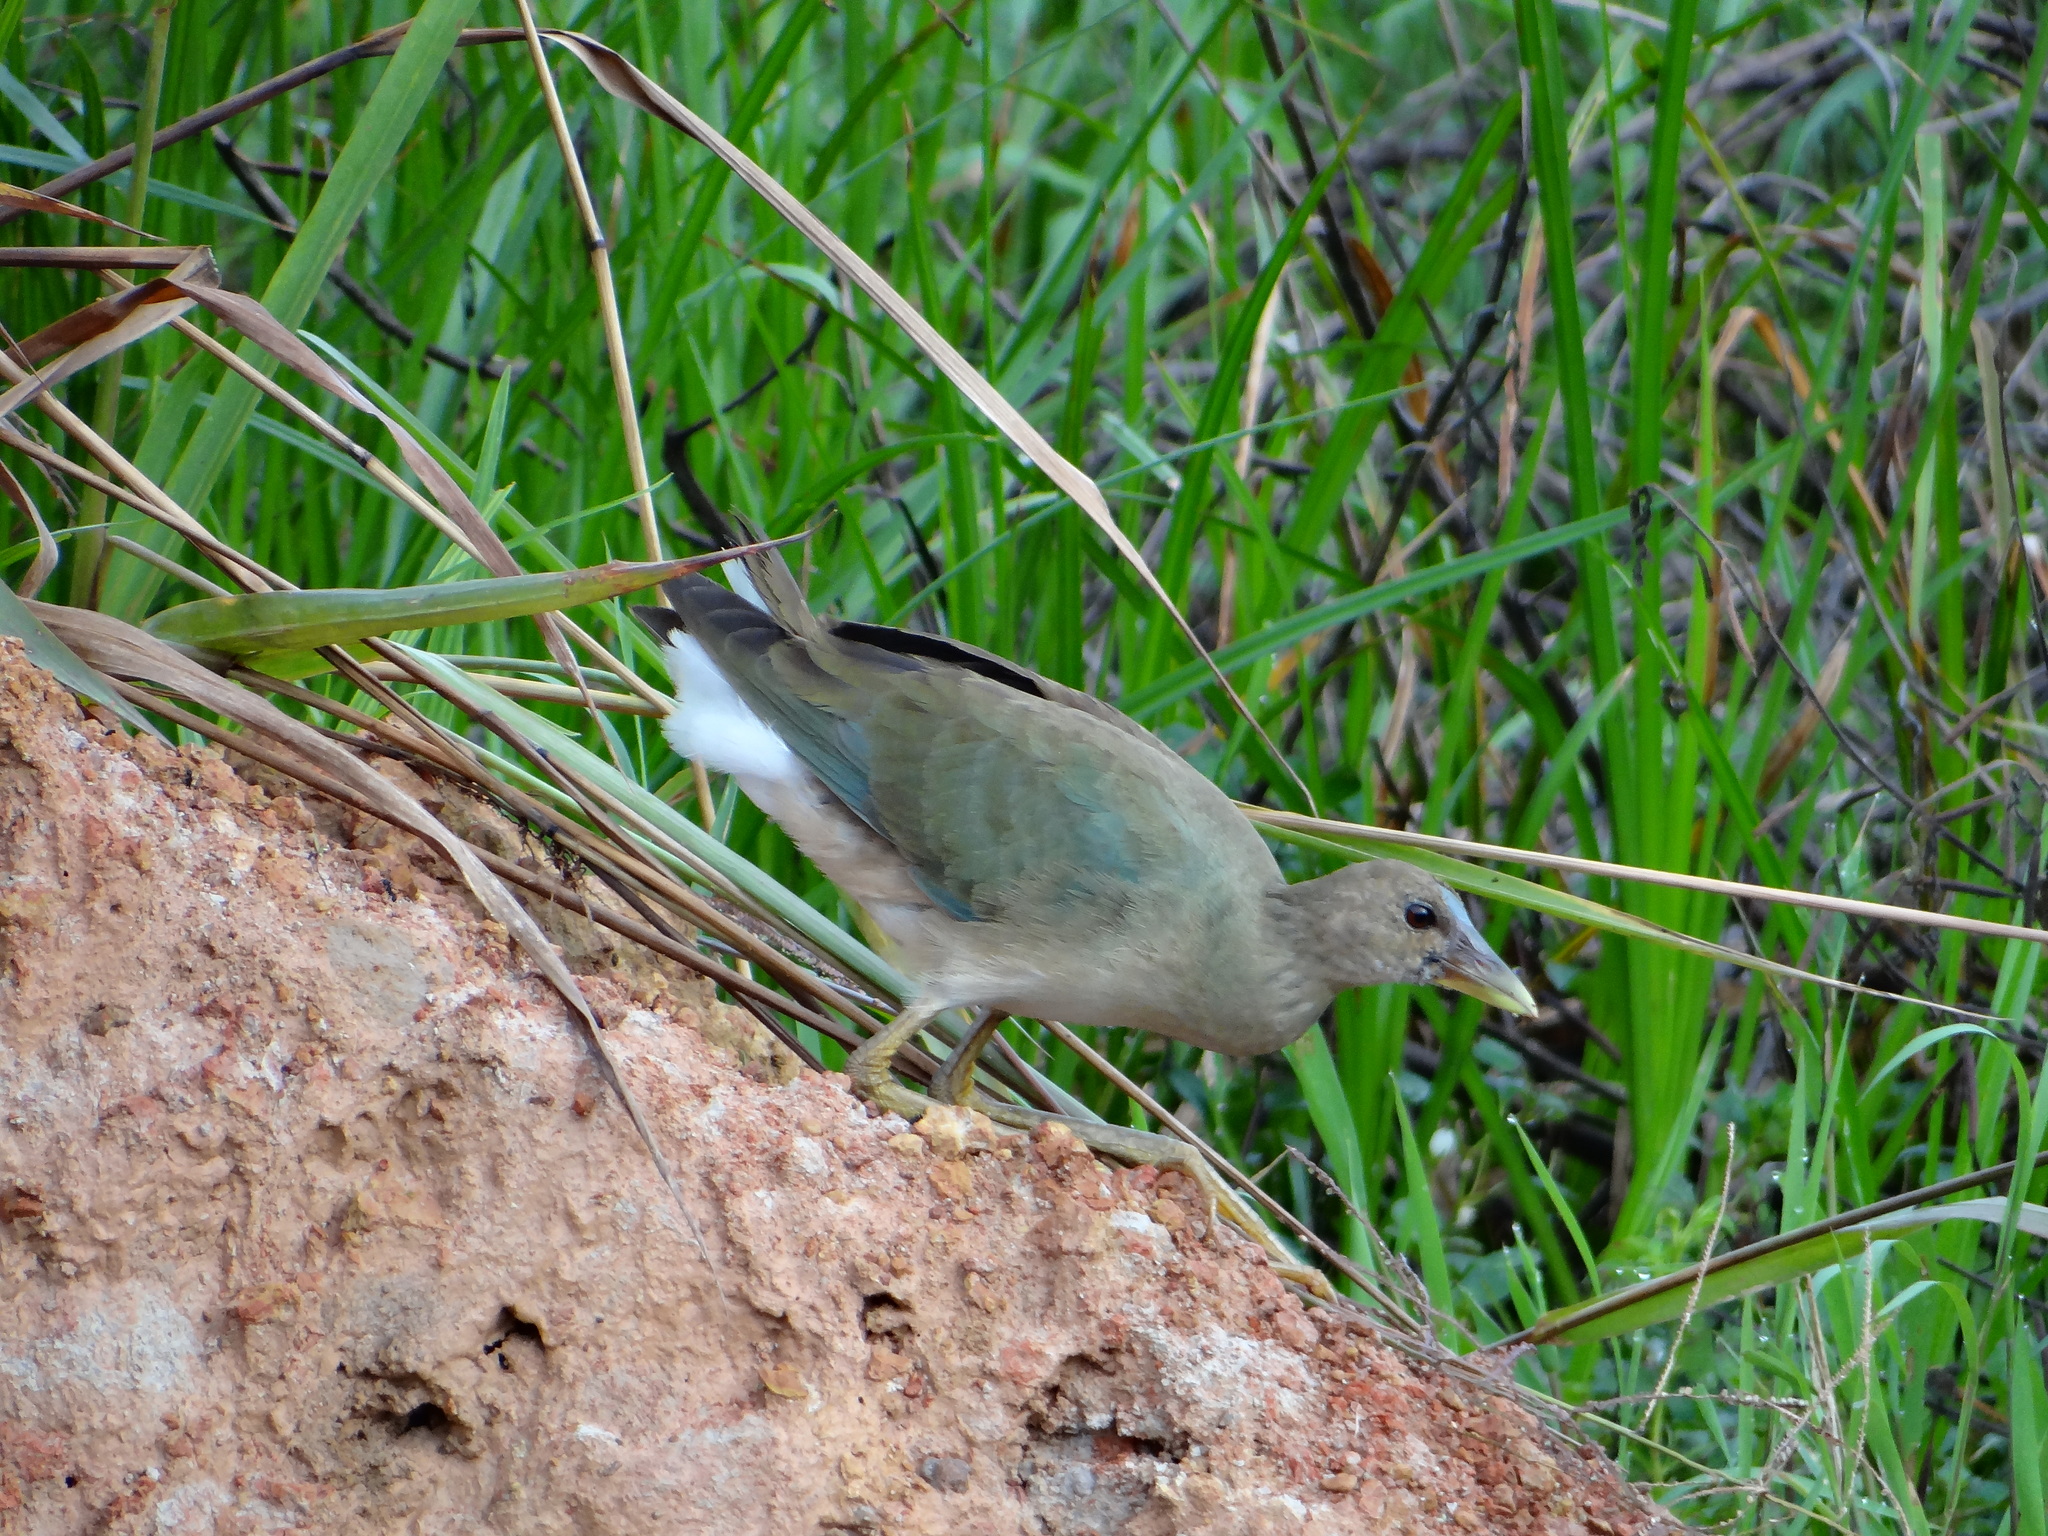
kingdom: Animalia
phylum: Chordata
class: Aves
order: Gruiformes
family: Rallidae
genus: Porphyrio
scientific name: Porphyrio martinica
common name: Purple gallinule
